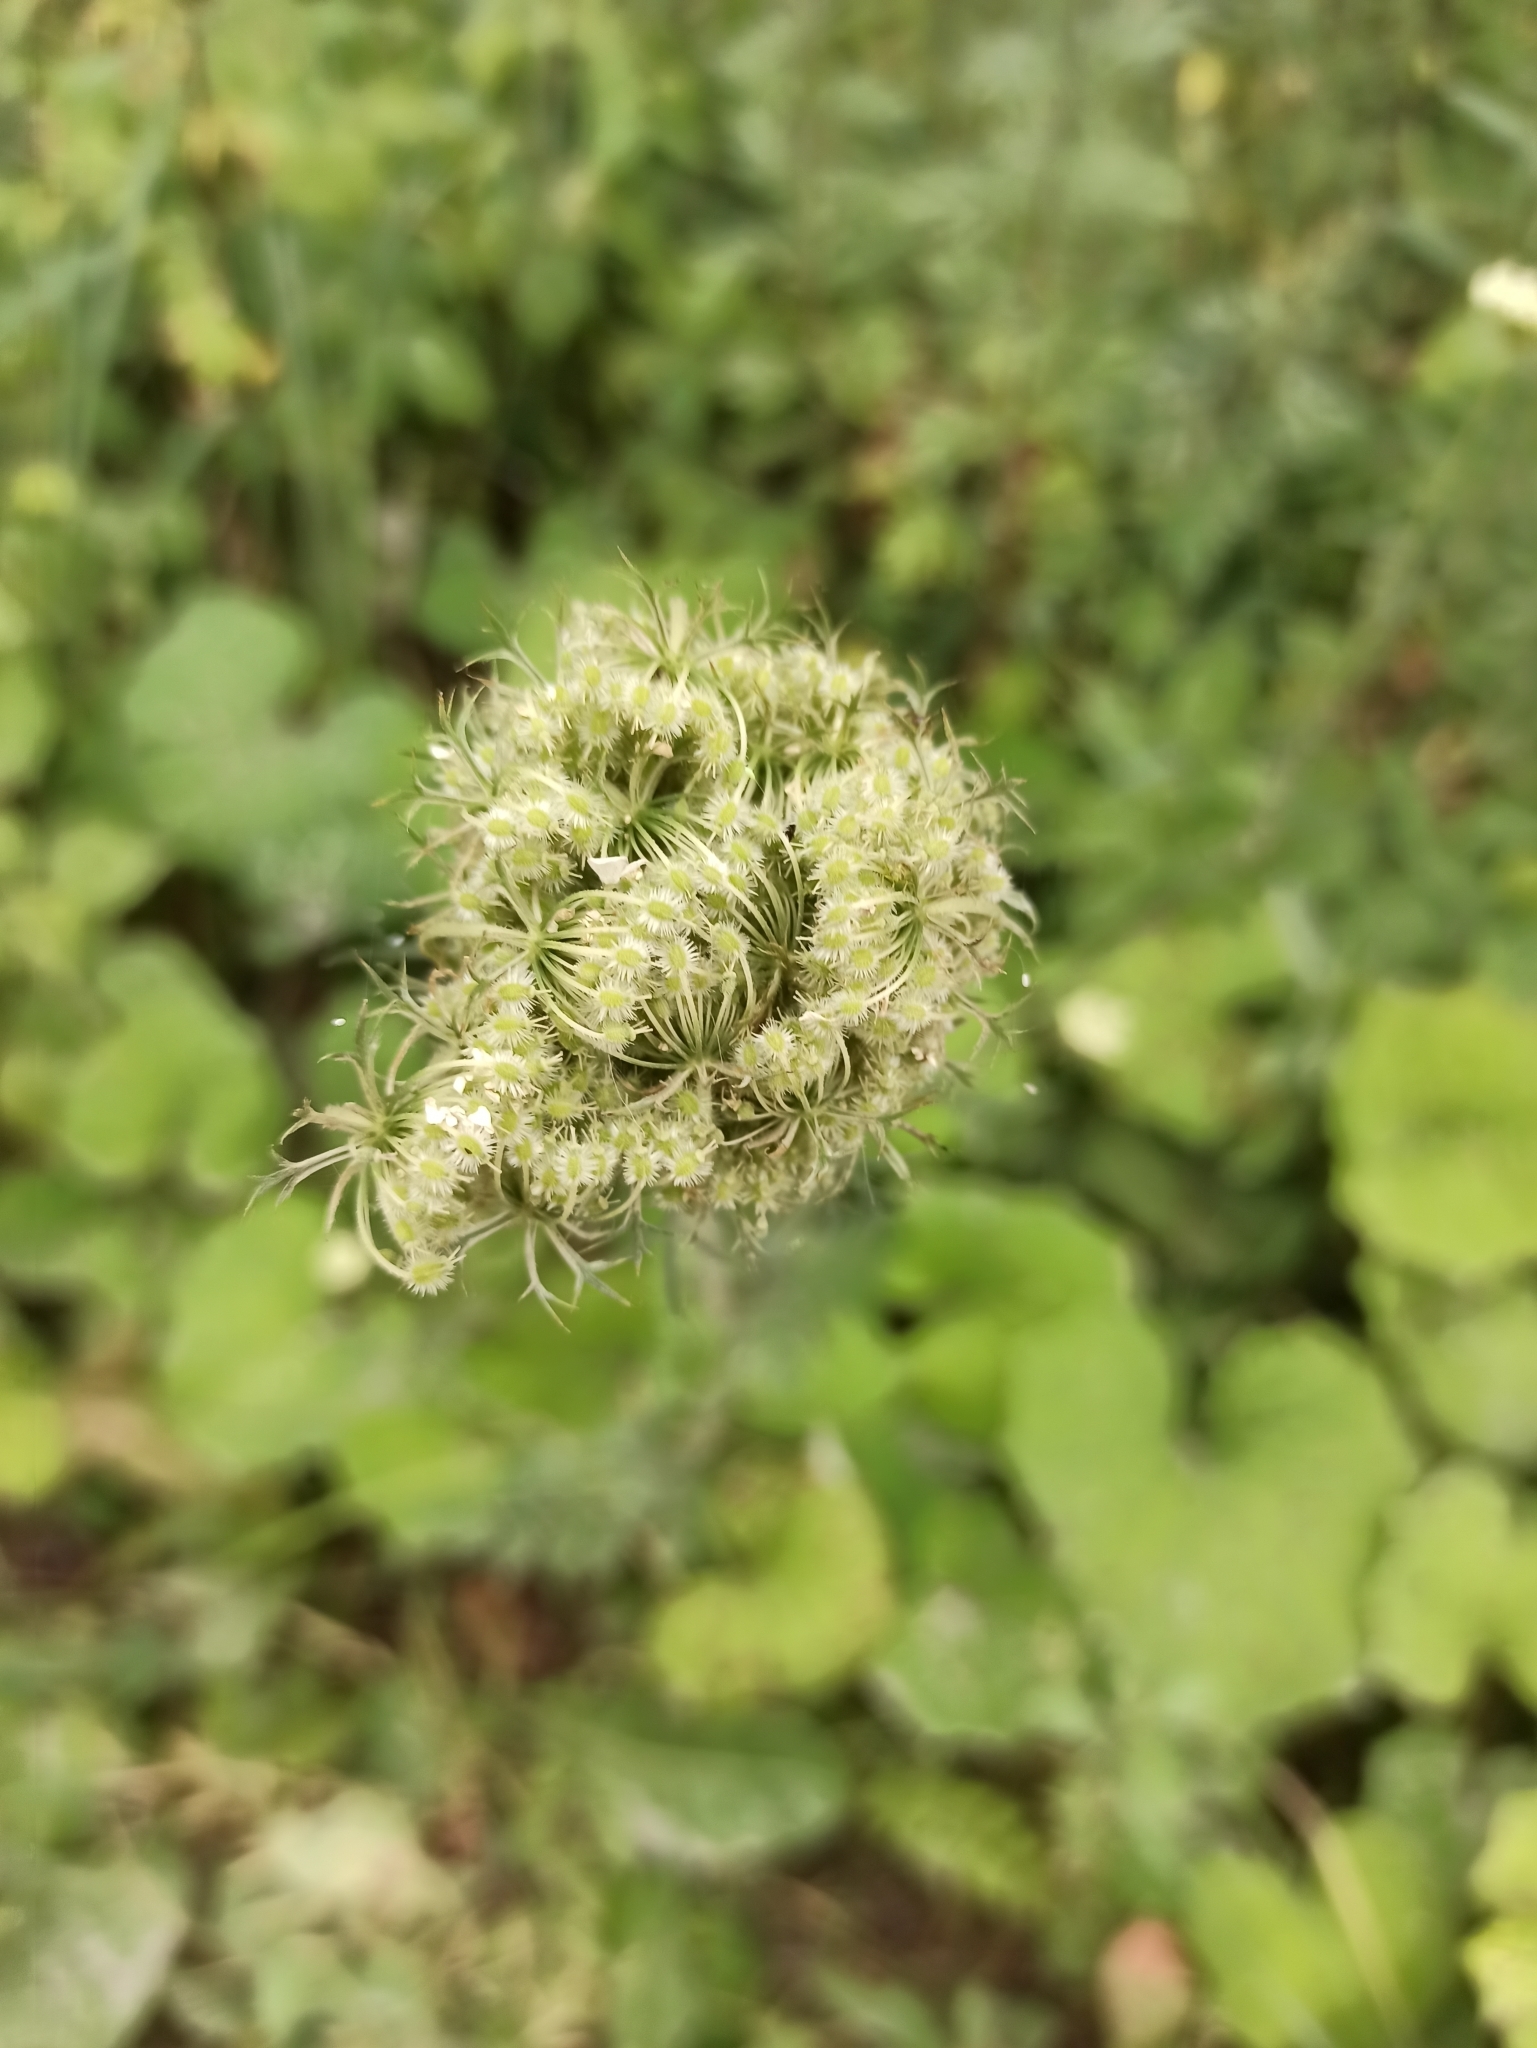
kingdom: Plantae
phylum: Tracheophyta
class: Magnoliopsida
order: Apiales
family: Apiaceae
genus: Daucus
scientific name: Daucus carota
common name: Wild carrot
